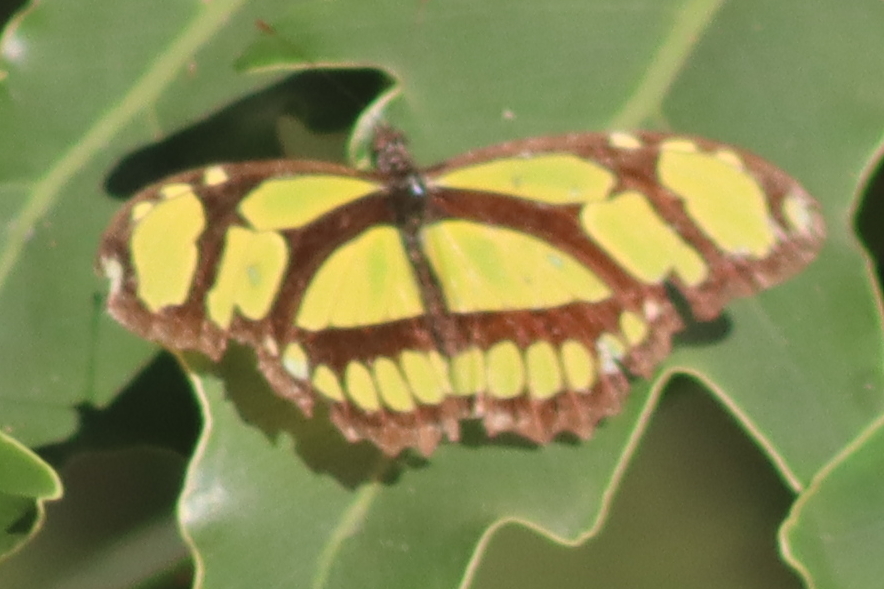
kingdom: Animalia
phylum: Arthropoda
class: Insecta
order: Lepidoptera
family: Nymphalidae
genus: Philaethria
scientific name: Philaethria dido
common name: Scarce bamboo page
